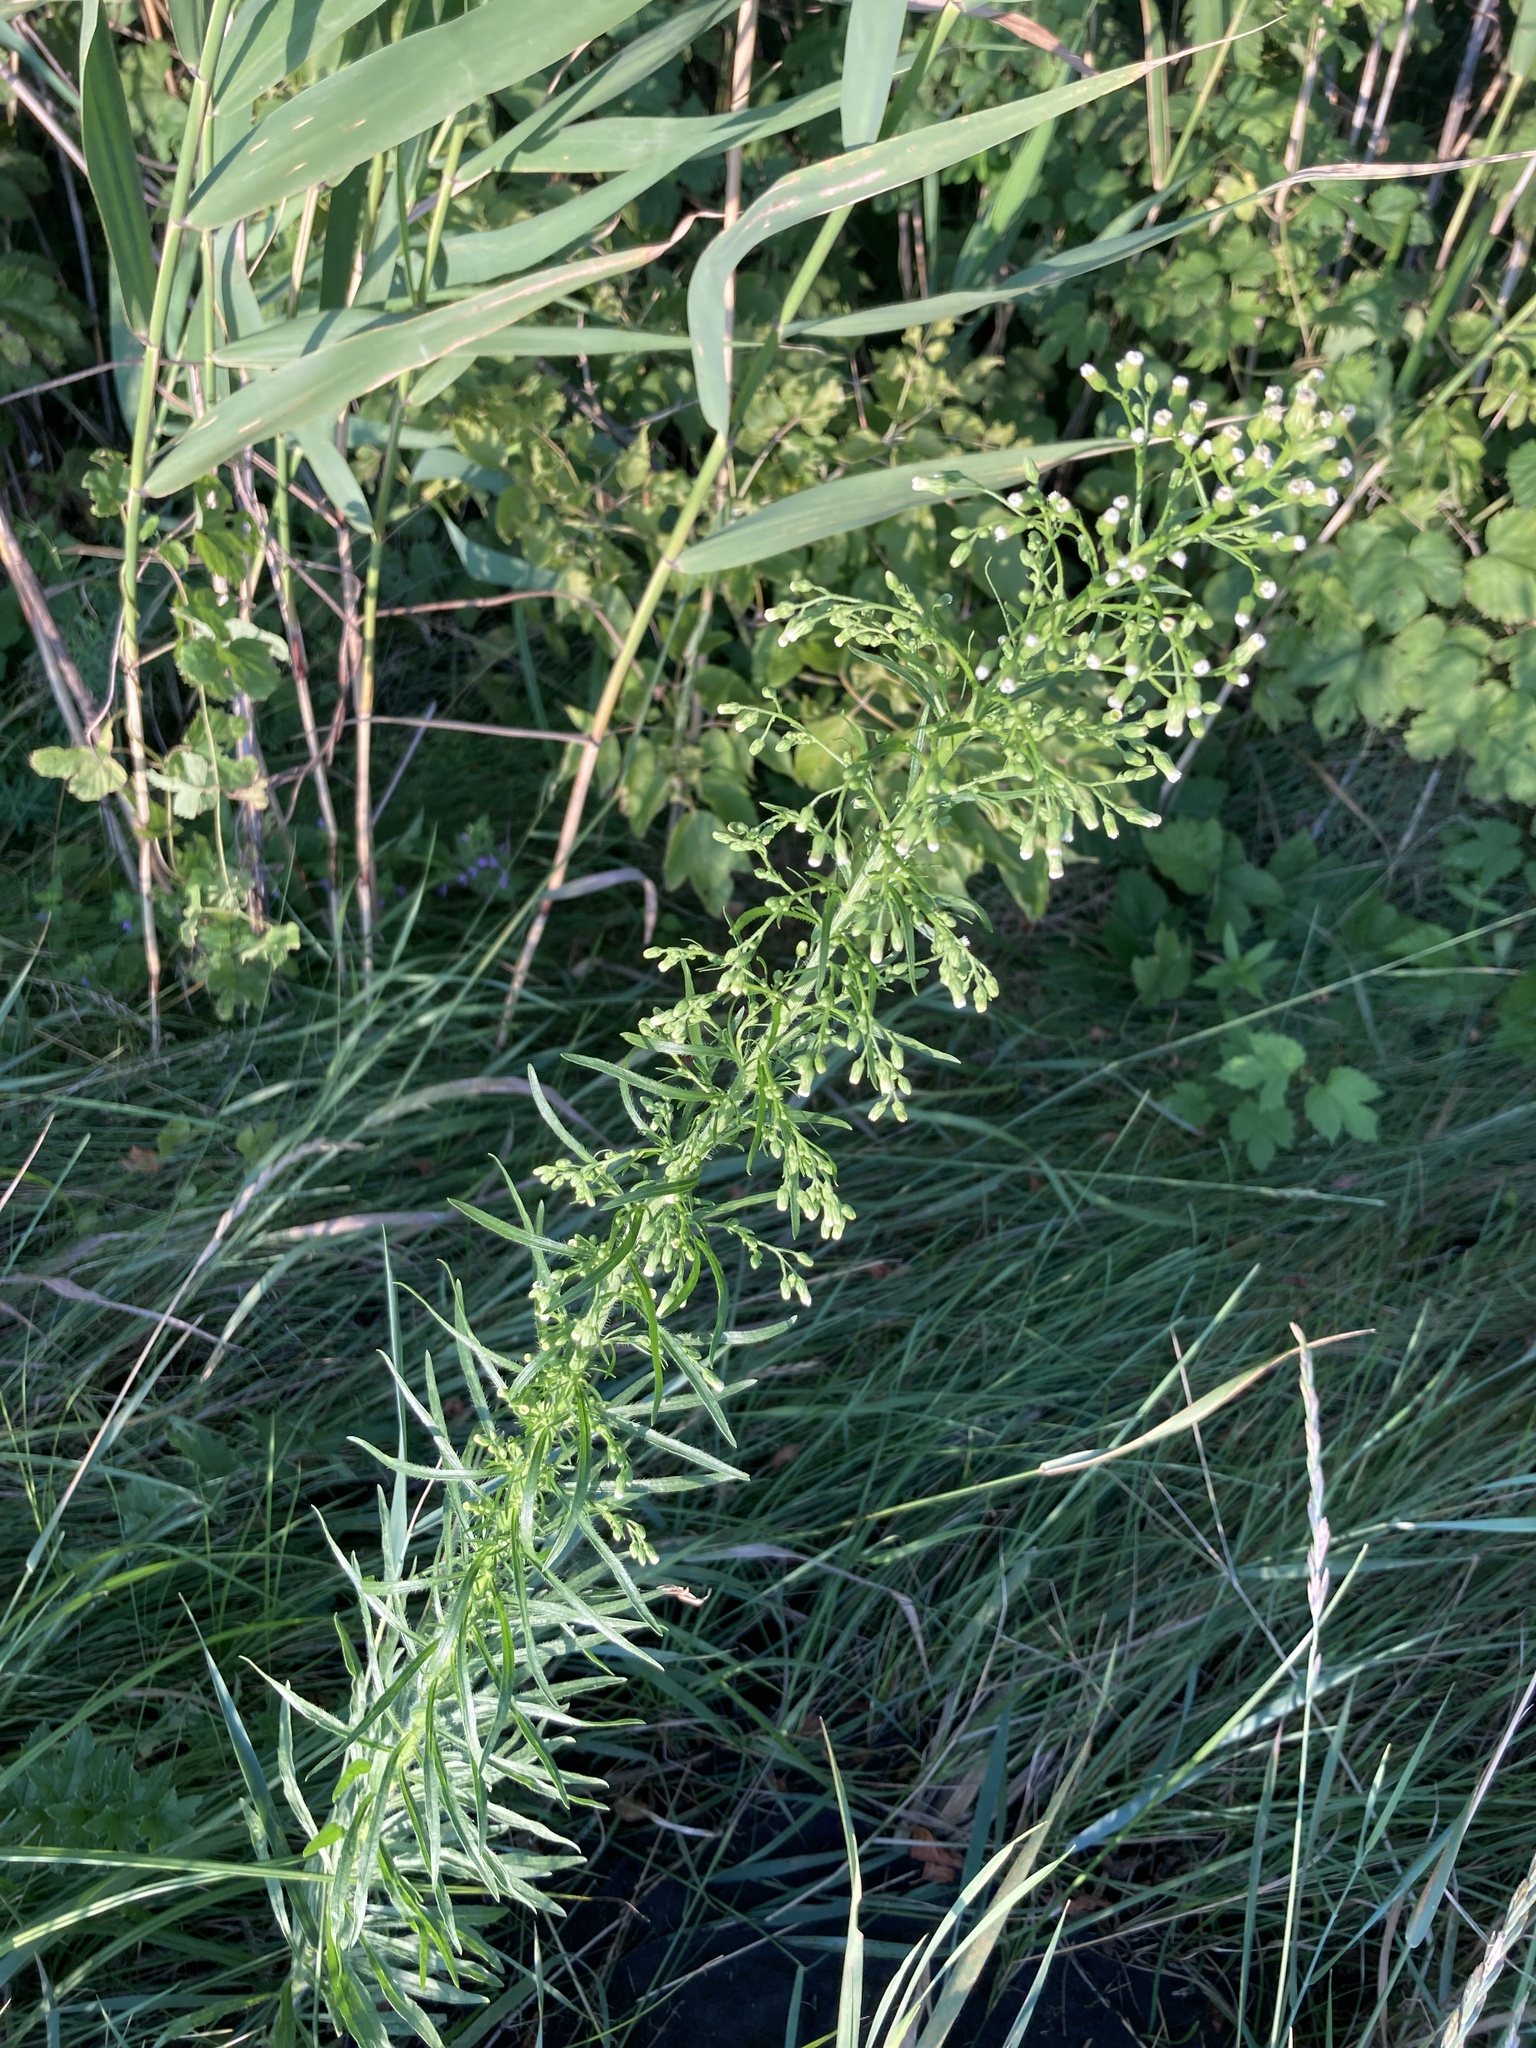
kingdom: Plantae
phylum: Tracheophyta
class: Magnoliopsida
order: Asterales
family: Asteraceae
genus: Erigeron
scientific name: Erigeron canadensis
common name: Canadian fleabane
